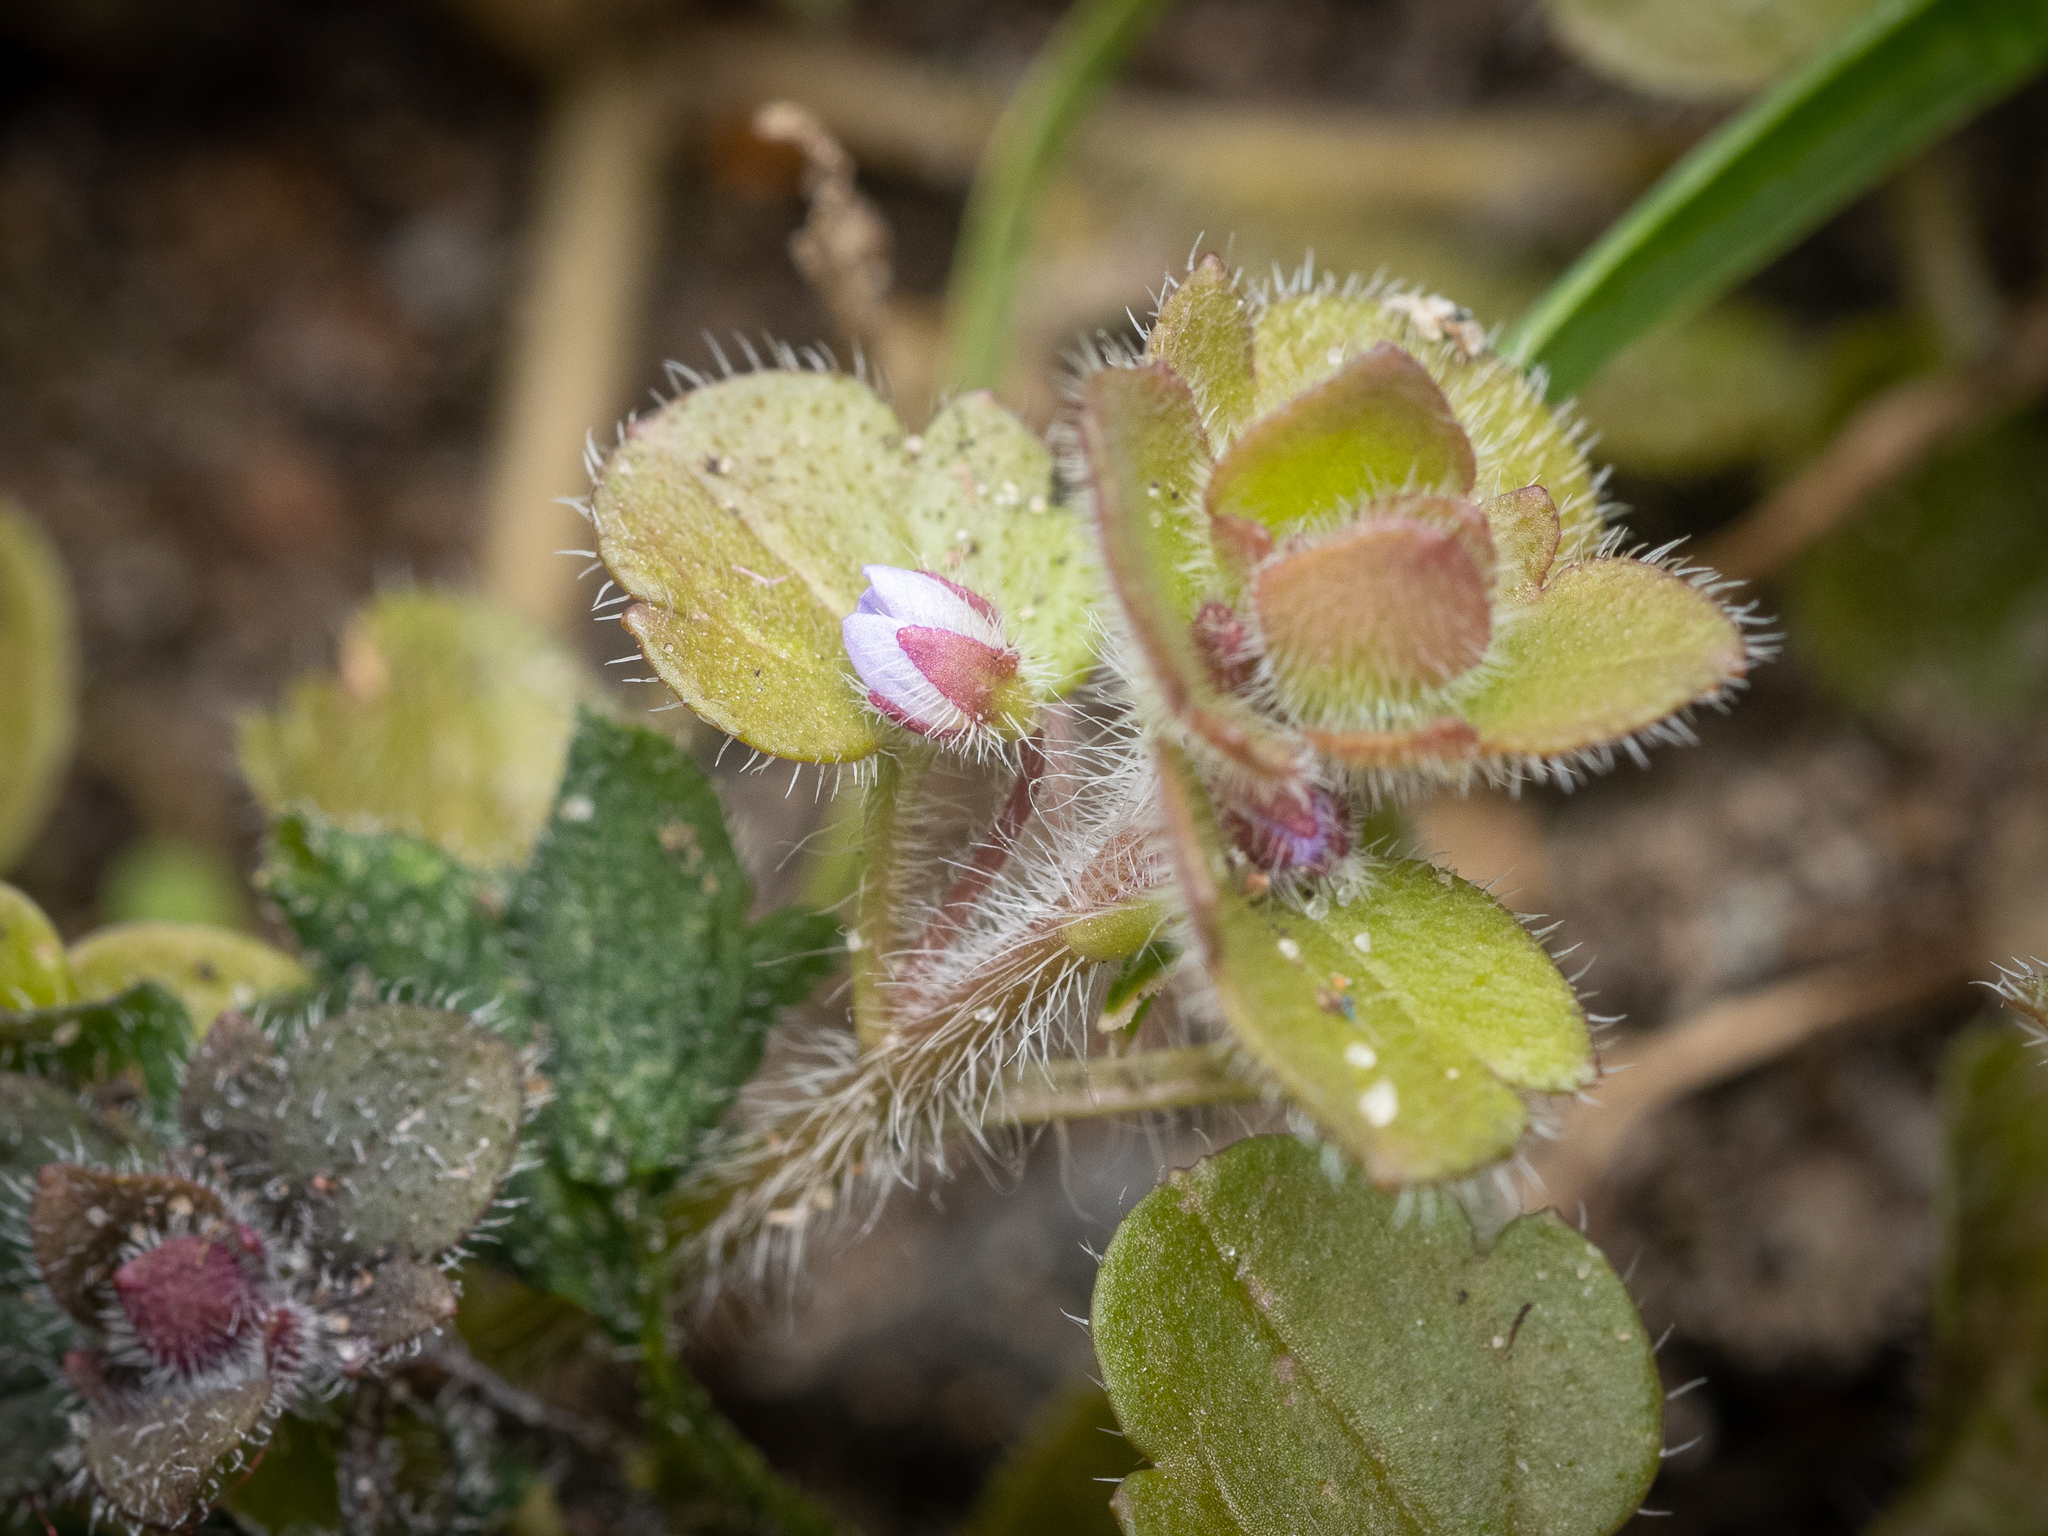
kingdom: Plantae
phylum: Tracheophyta
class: Magnoliopsida
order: Lamiales
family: Plantaginaceae
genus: Veronica
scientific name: Veronica sublobata
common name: False ivy-leaved speedwell
